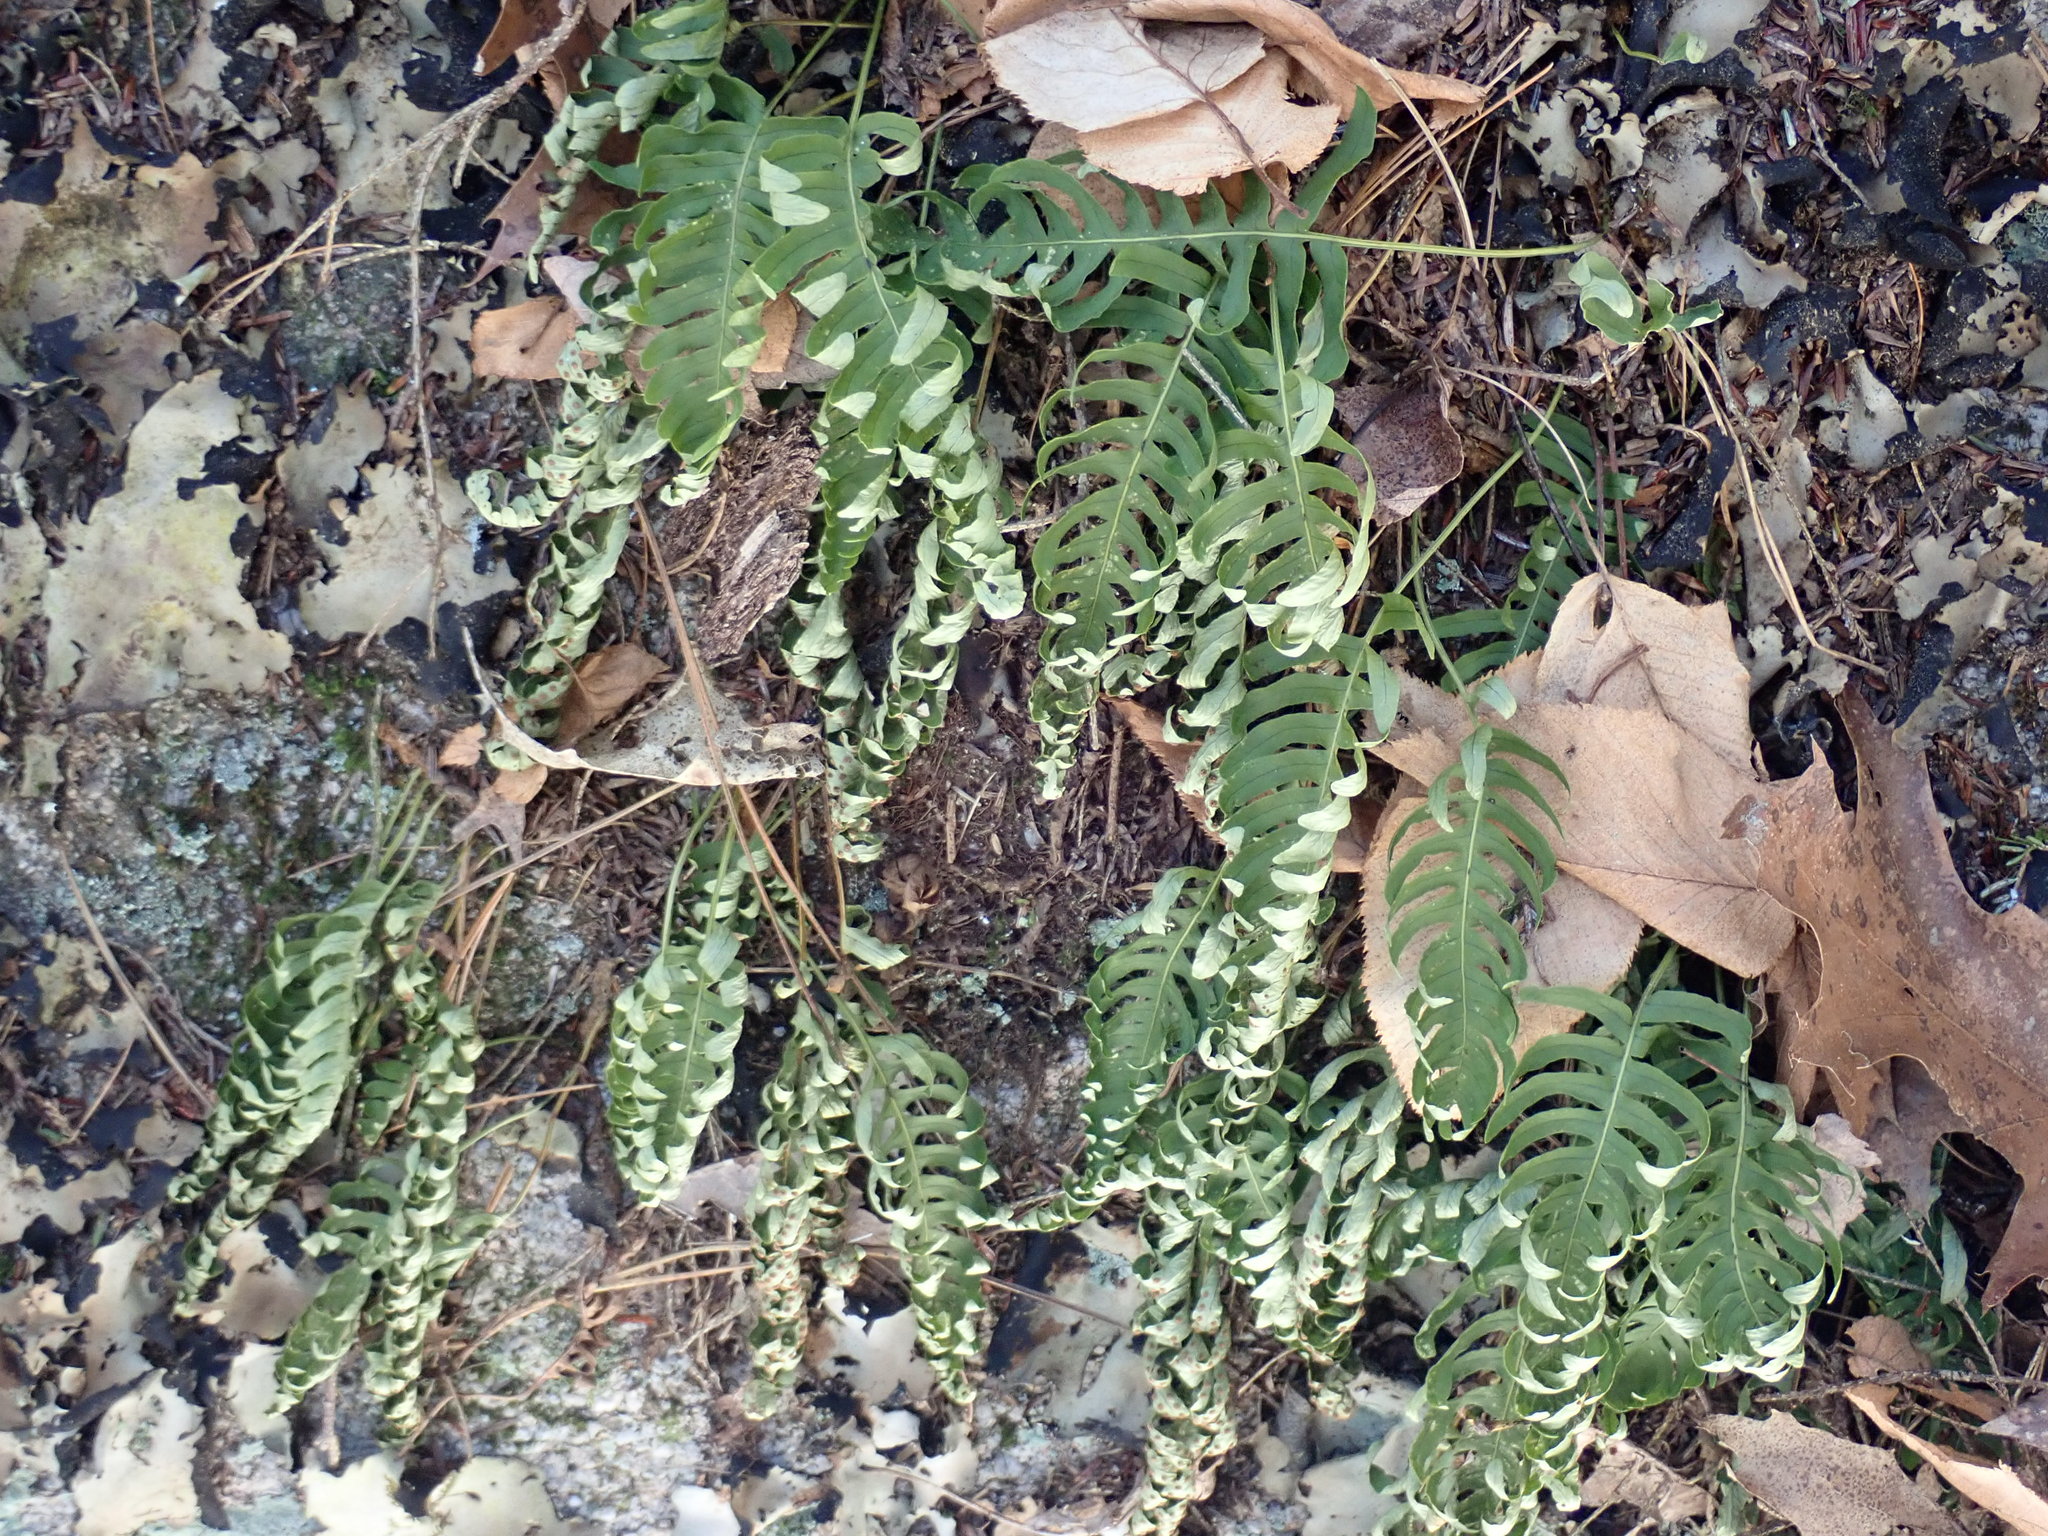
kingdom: Plantae
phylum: Tracheophyta
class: Polypodiopsida
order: Polypodiales
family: Polypodiaceae
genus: Polypodium
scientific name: Polypodium
